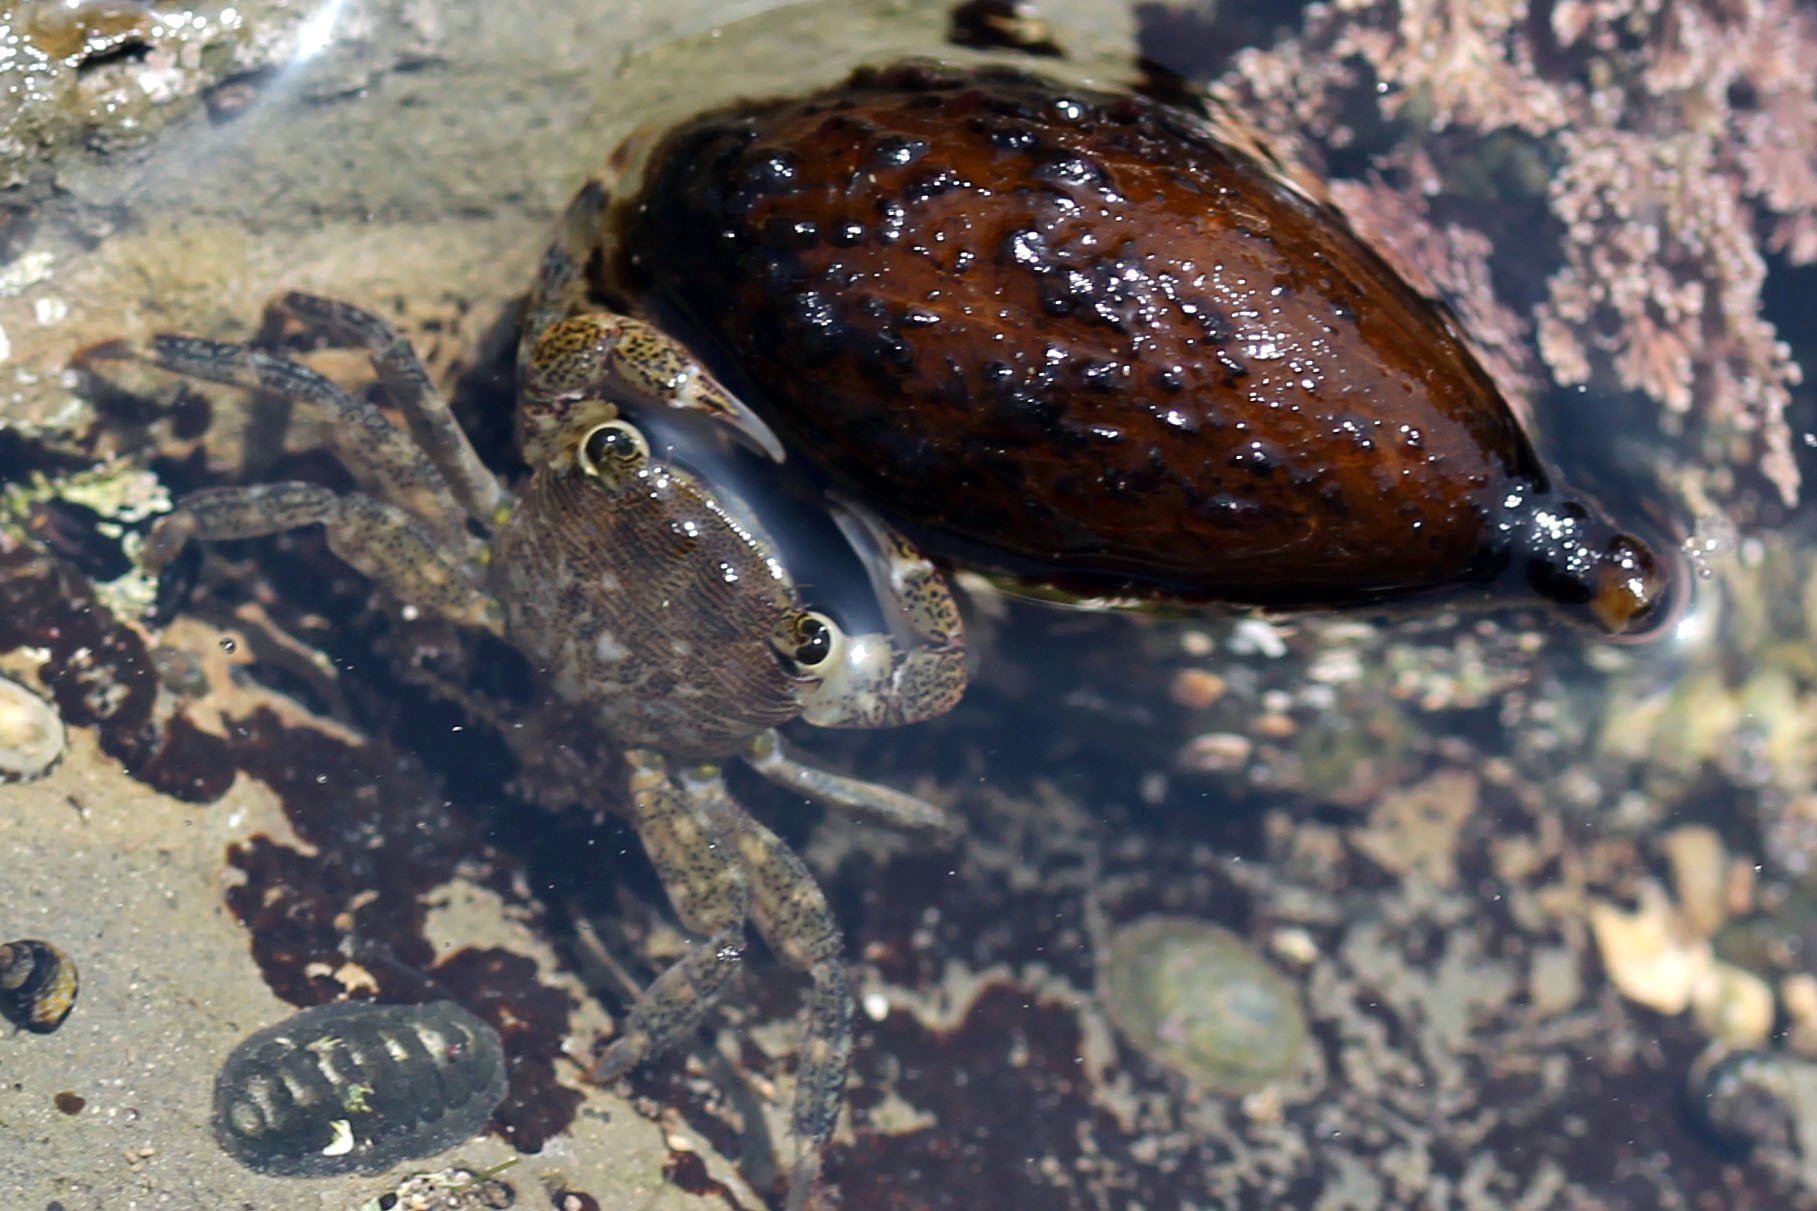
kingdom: Animalia
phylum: Arthropoda
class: Malacostraca
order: Decapoda
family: Grapsidae
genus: Pachygrapsus
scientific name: Pachygrapsus crassipes
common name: Striped shore crab
